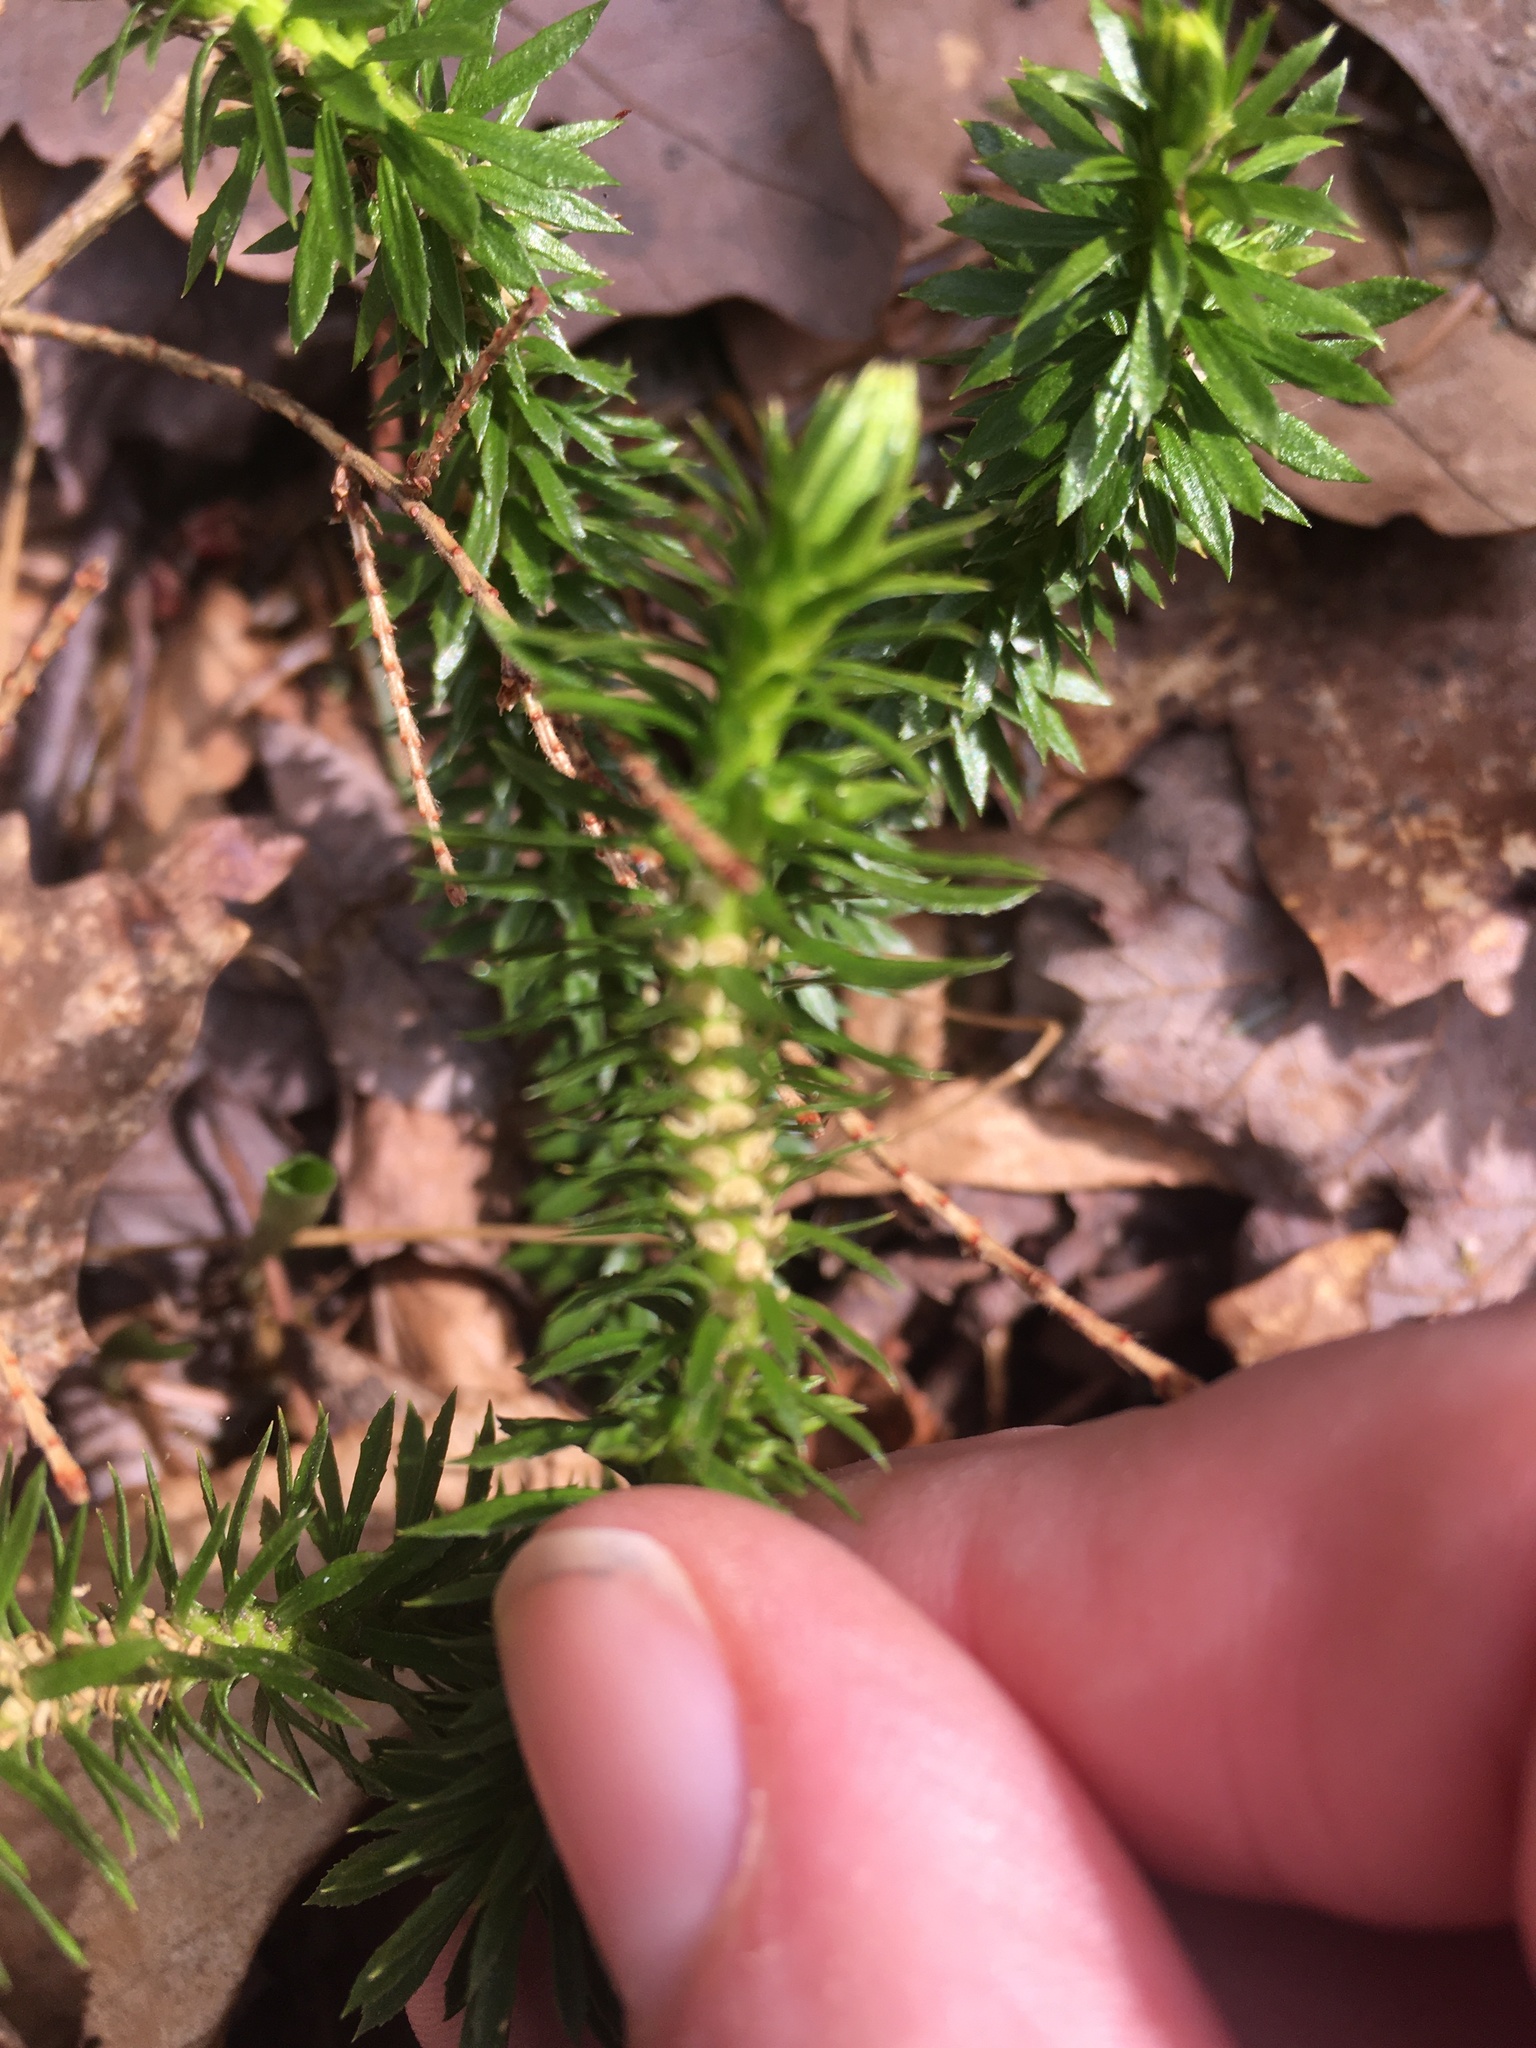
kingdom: Plantae
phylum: Tracheophyta
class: Lycopodiopsida
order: Lycopodiales
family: Lycopodiaceae
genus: Huperzia
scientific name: Huperzia lucidula
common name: Shining clubmoss
